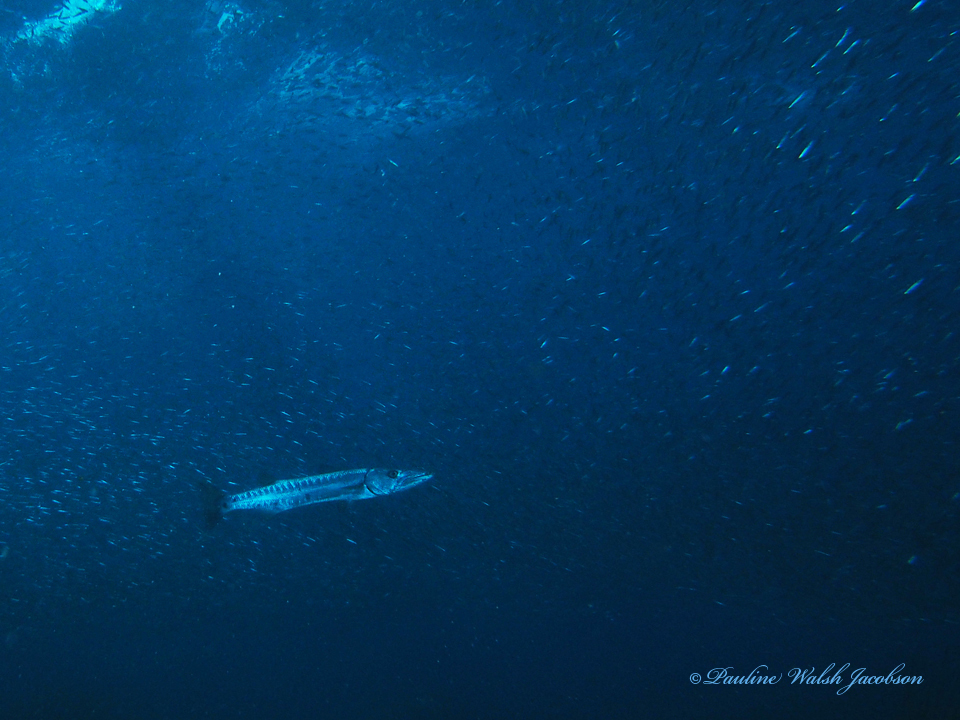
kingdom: Animalia
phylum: Chordata
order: Perciformes
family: Sphyraenidae
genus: Sphyraena
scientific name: Sphyraena barracuda
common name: Great barracuda
